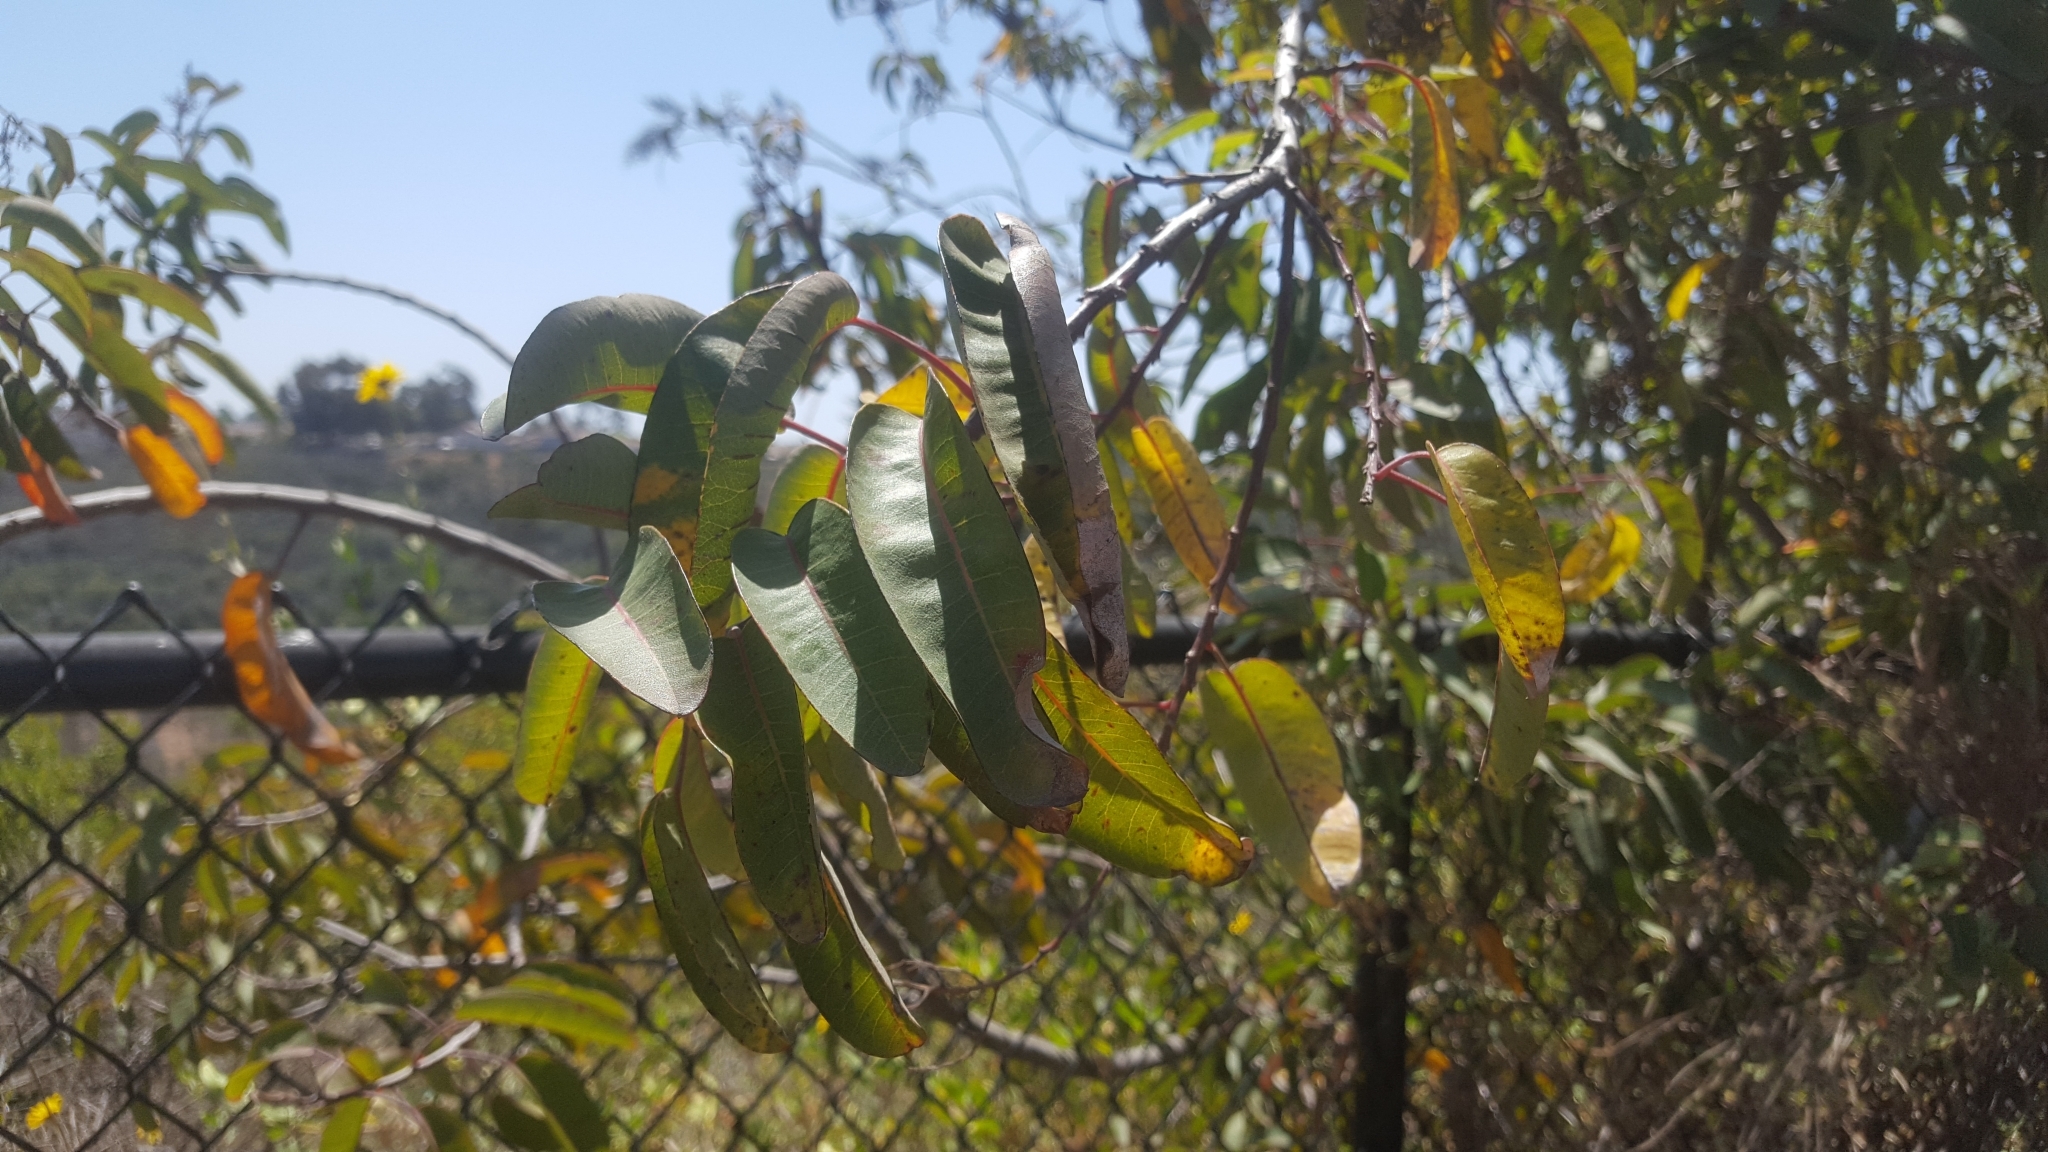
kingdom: Plantae
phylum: Tracheophyta
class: Magnoliopsida
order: Sapindales
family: Anacardiaceae
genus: Malosma
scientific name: Malosma laurina
